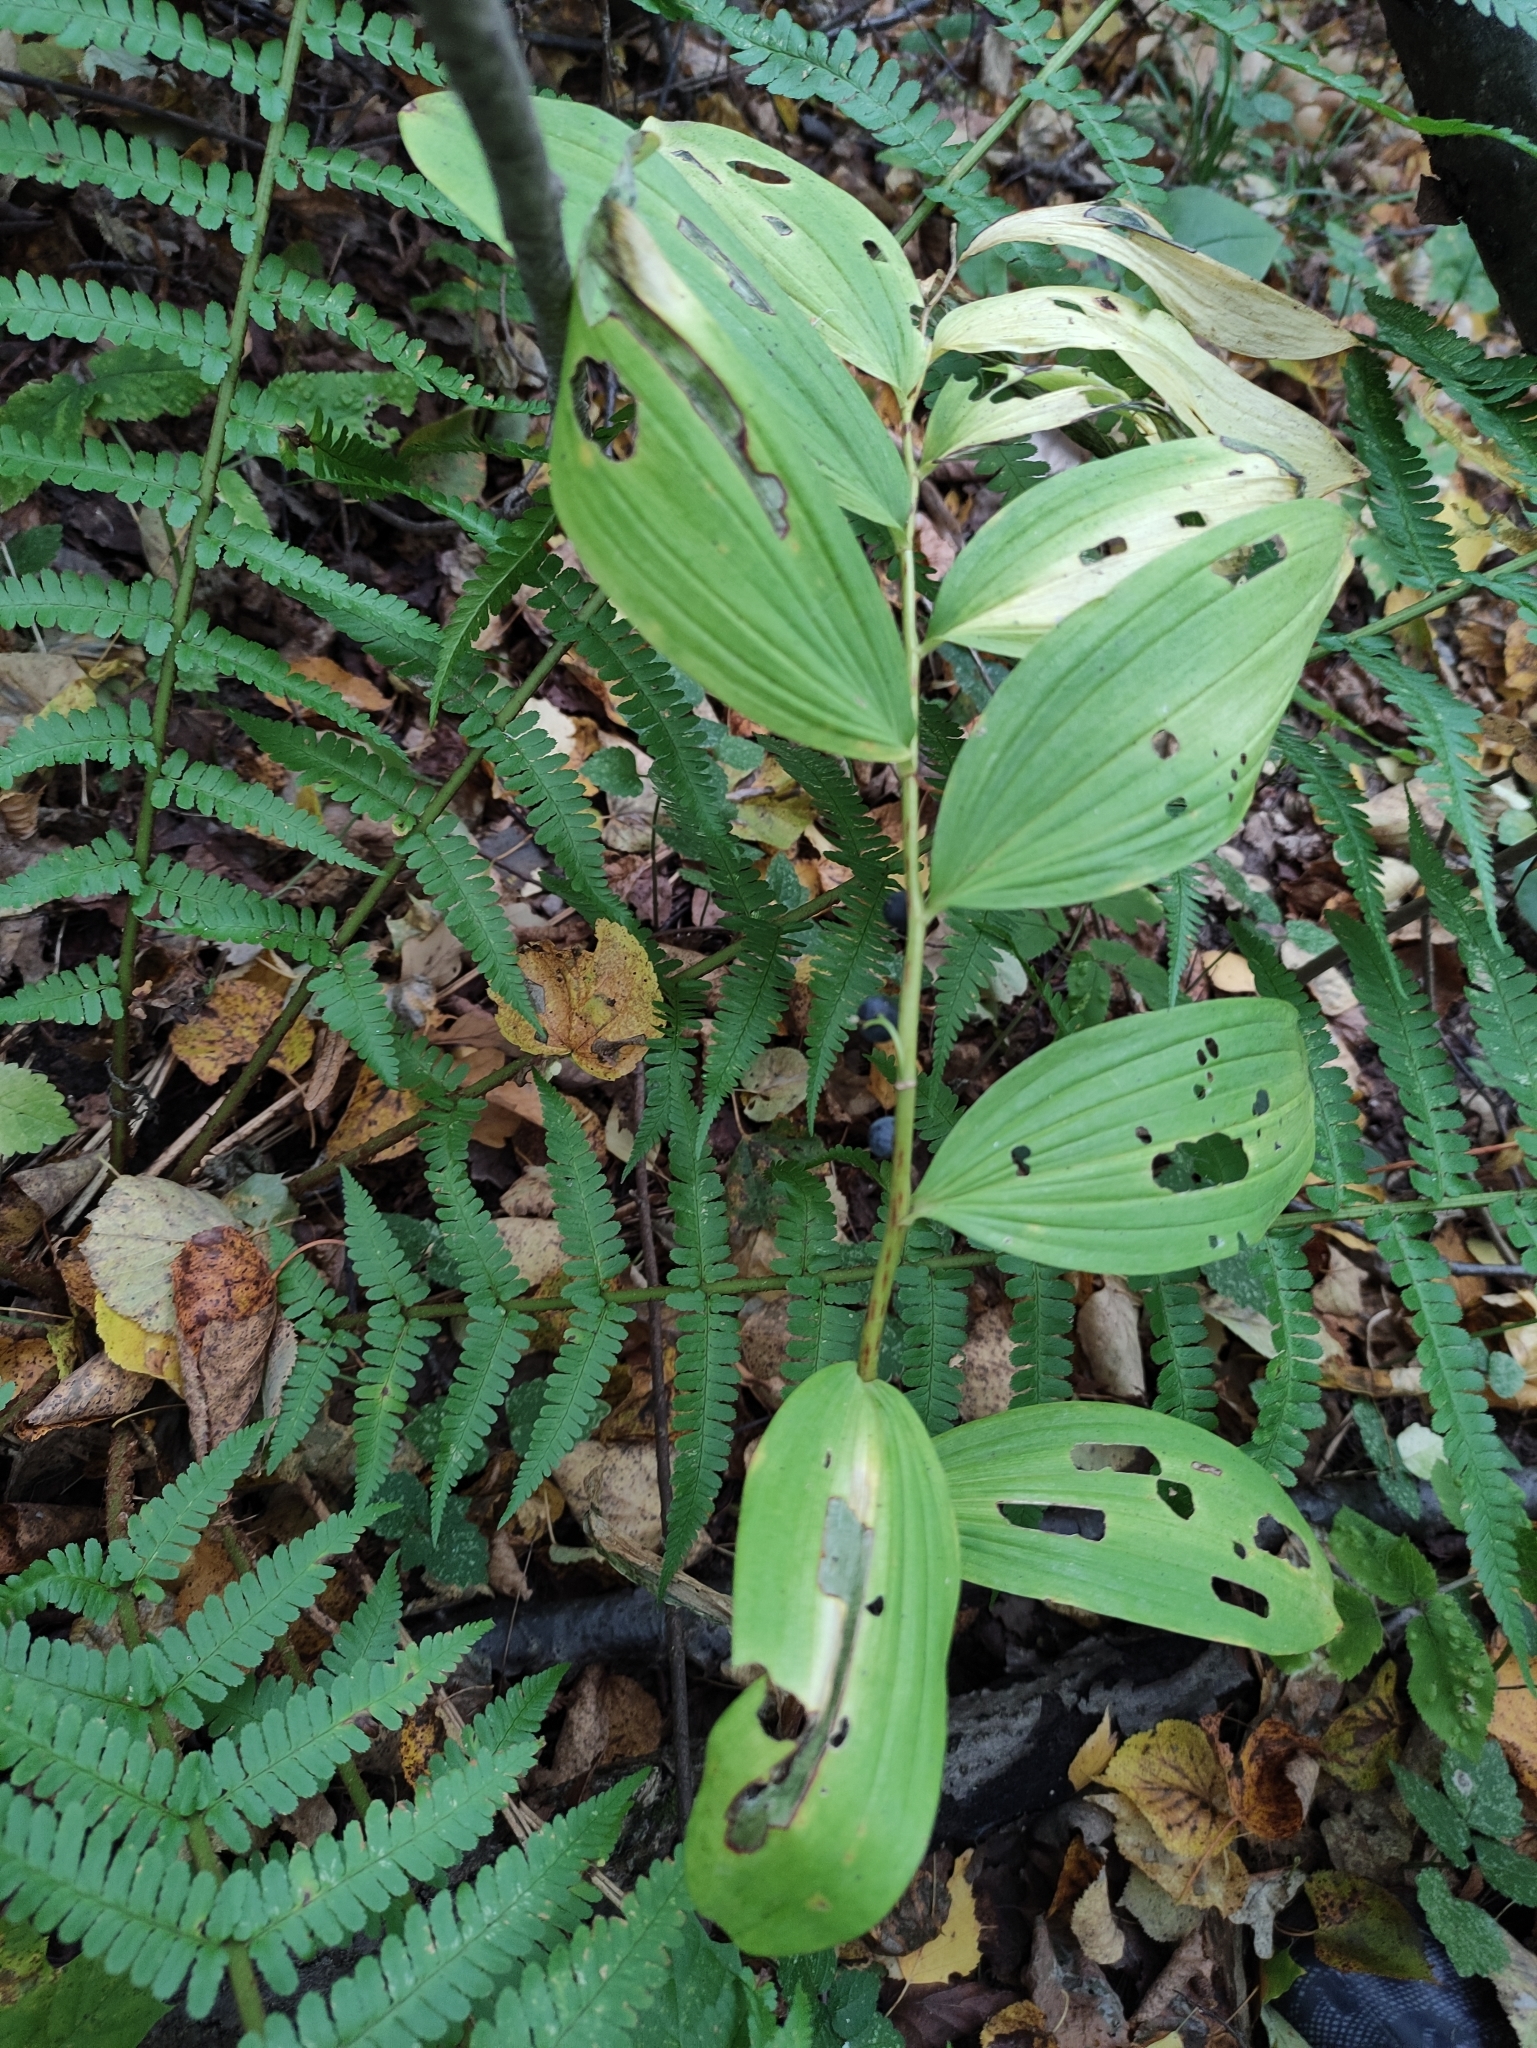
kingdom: Plantae
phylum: Tracheophyta
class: Liliopsida
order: Asparagales
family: Asparagaceae
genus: Polygonatum
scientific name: Polygonatum multiflorum
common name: Solomon's-seal
